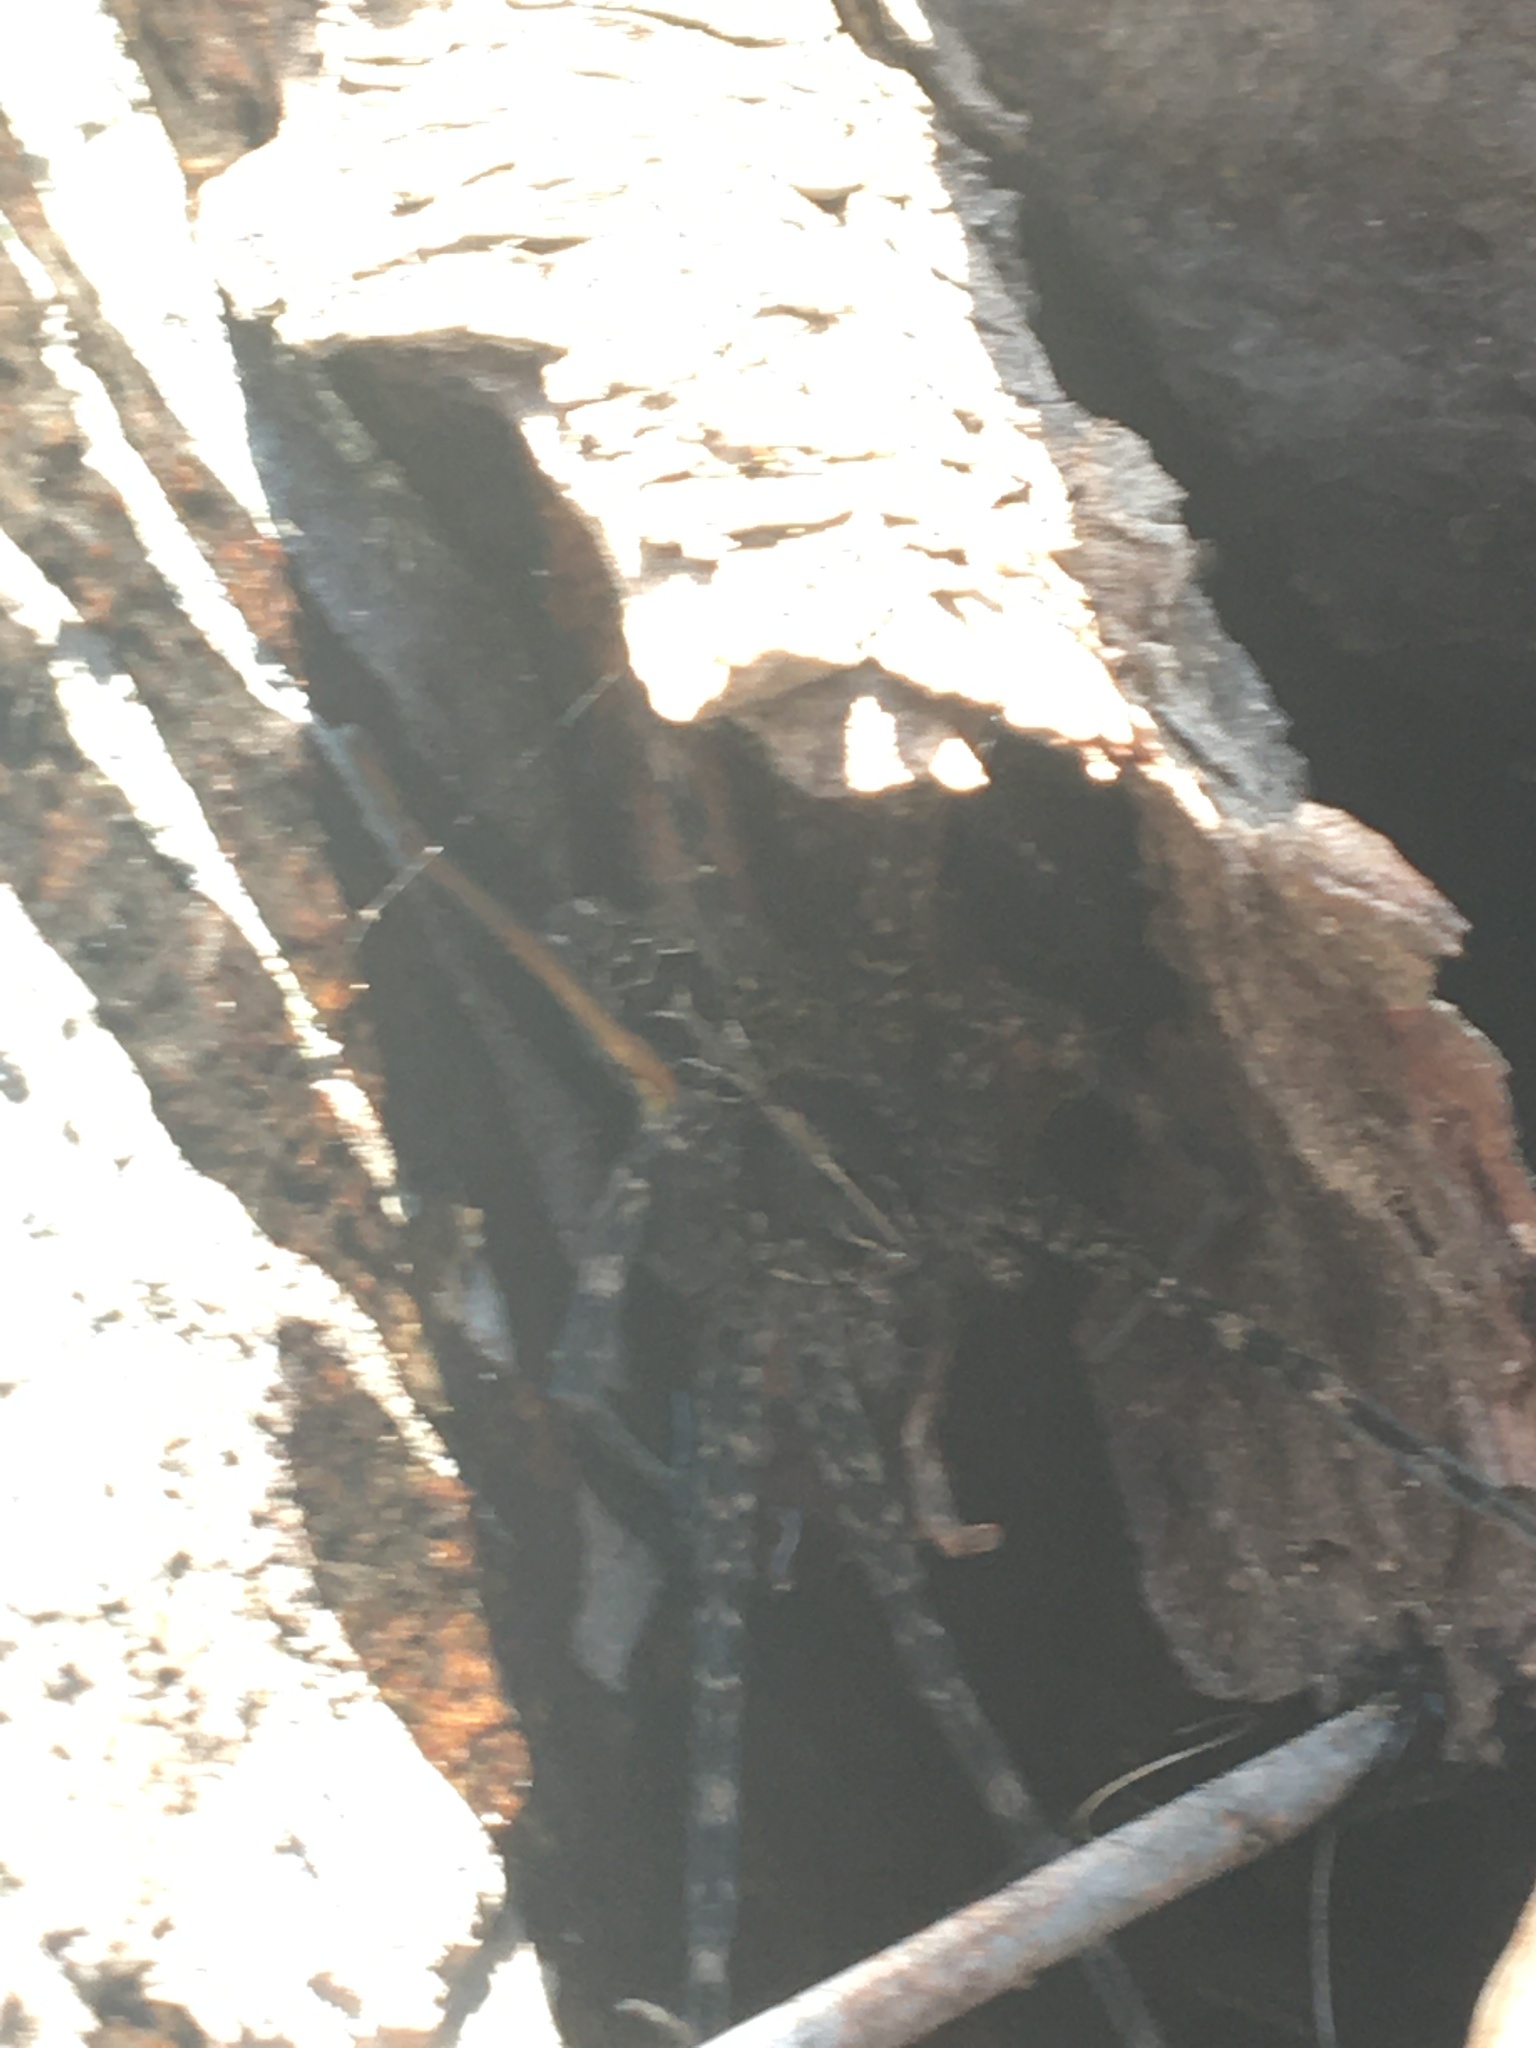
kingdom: Animalia
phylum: Arthropoda
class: Arachnida
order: Araneae
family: Pisauridae
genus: Dolomedes
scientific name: Dolomedes scriptus
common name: Striped fishing spider
